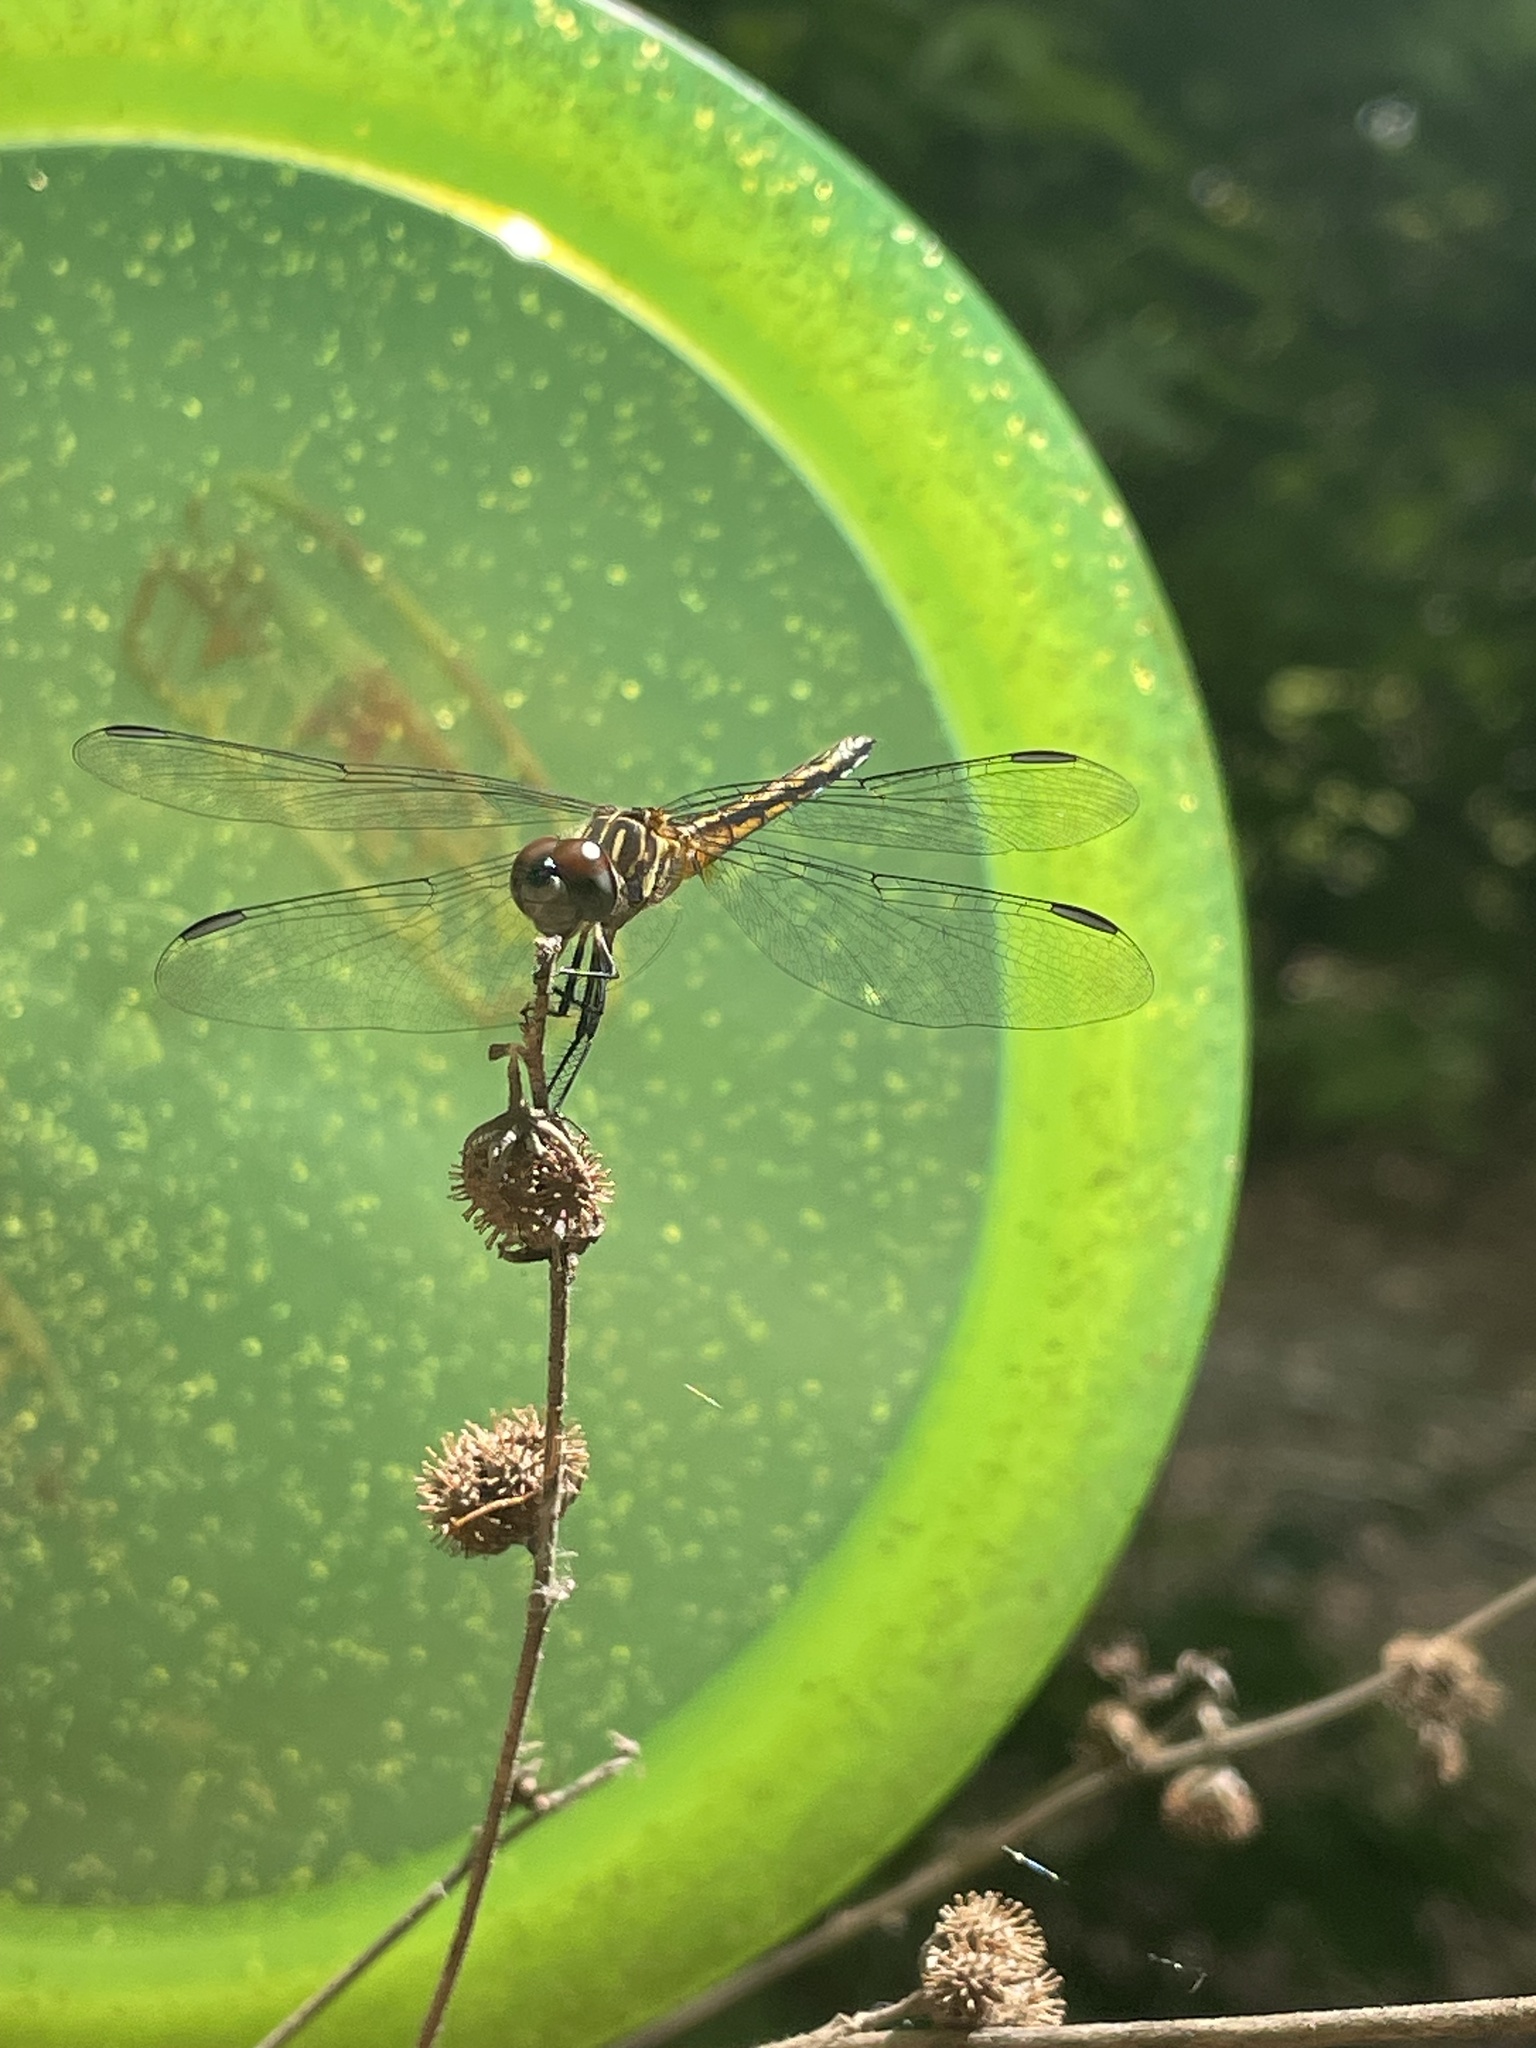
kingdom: Animalia
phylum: Arthropoda
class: Insecta
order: Odonata
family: Libellulidae
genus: Pachydiplax
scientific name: Pachydiplax longipennis
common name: Blue dasher
